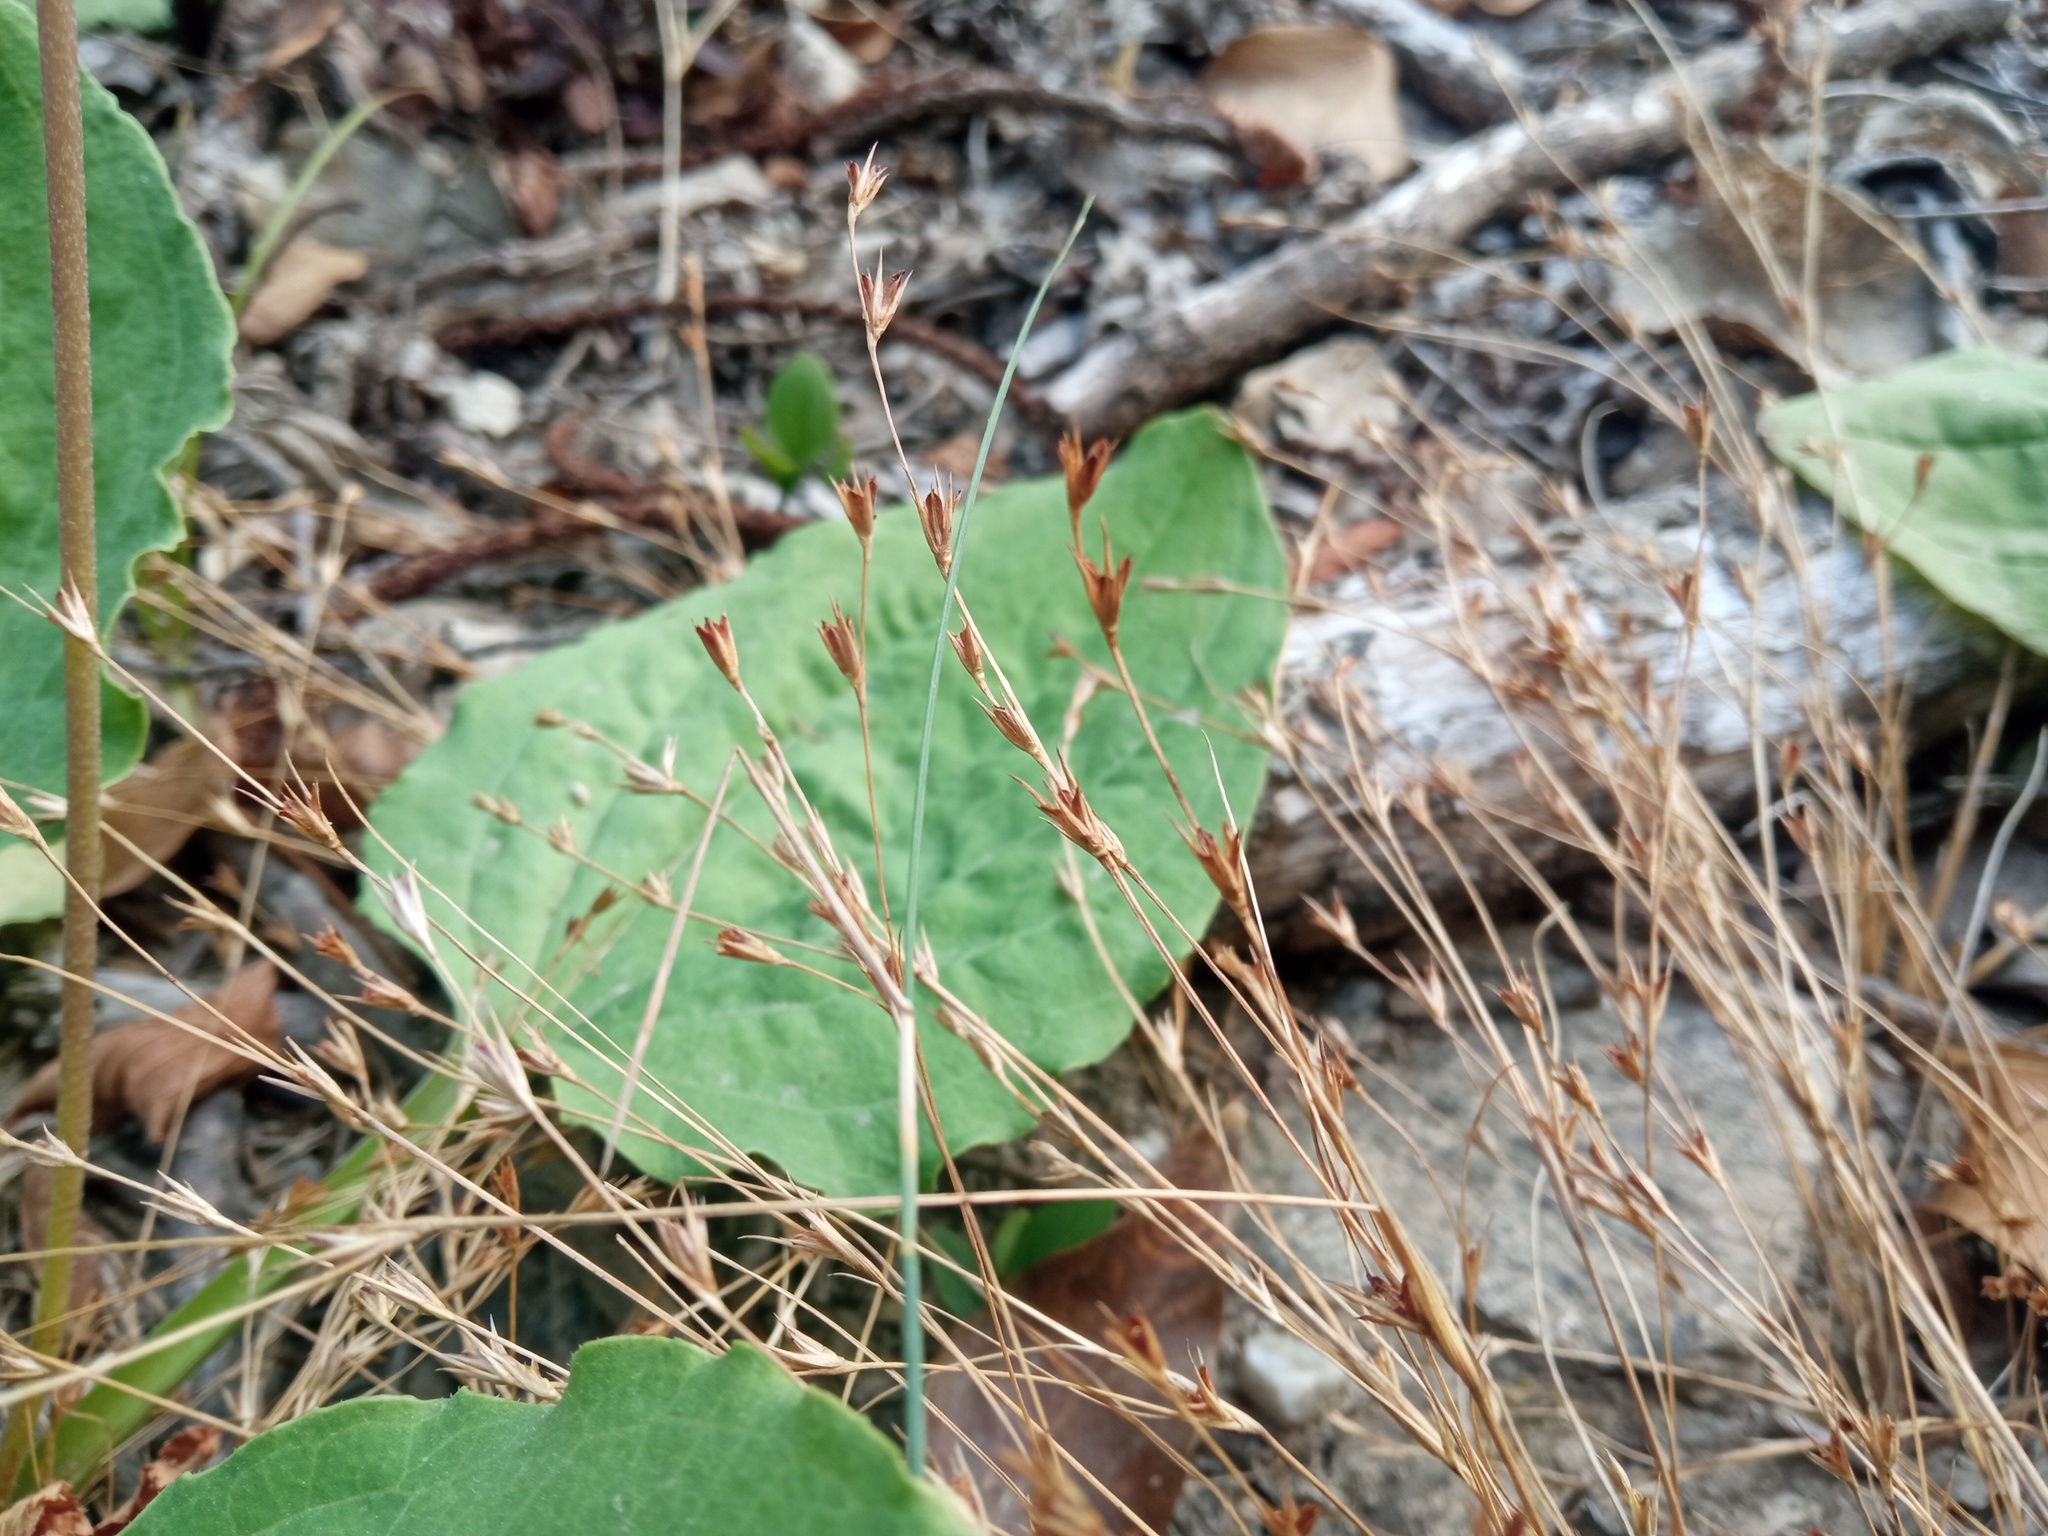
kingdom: Plantae
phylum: Tracheophyta
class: Liliopsida
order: Poales
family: Juncaceae
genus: Juncus
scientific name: Juncus bufonius
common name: Toad rush
